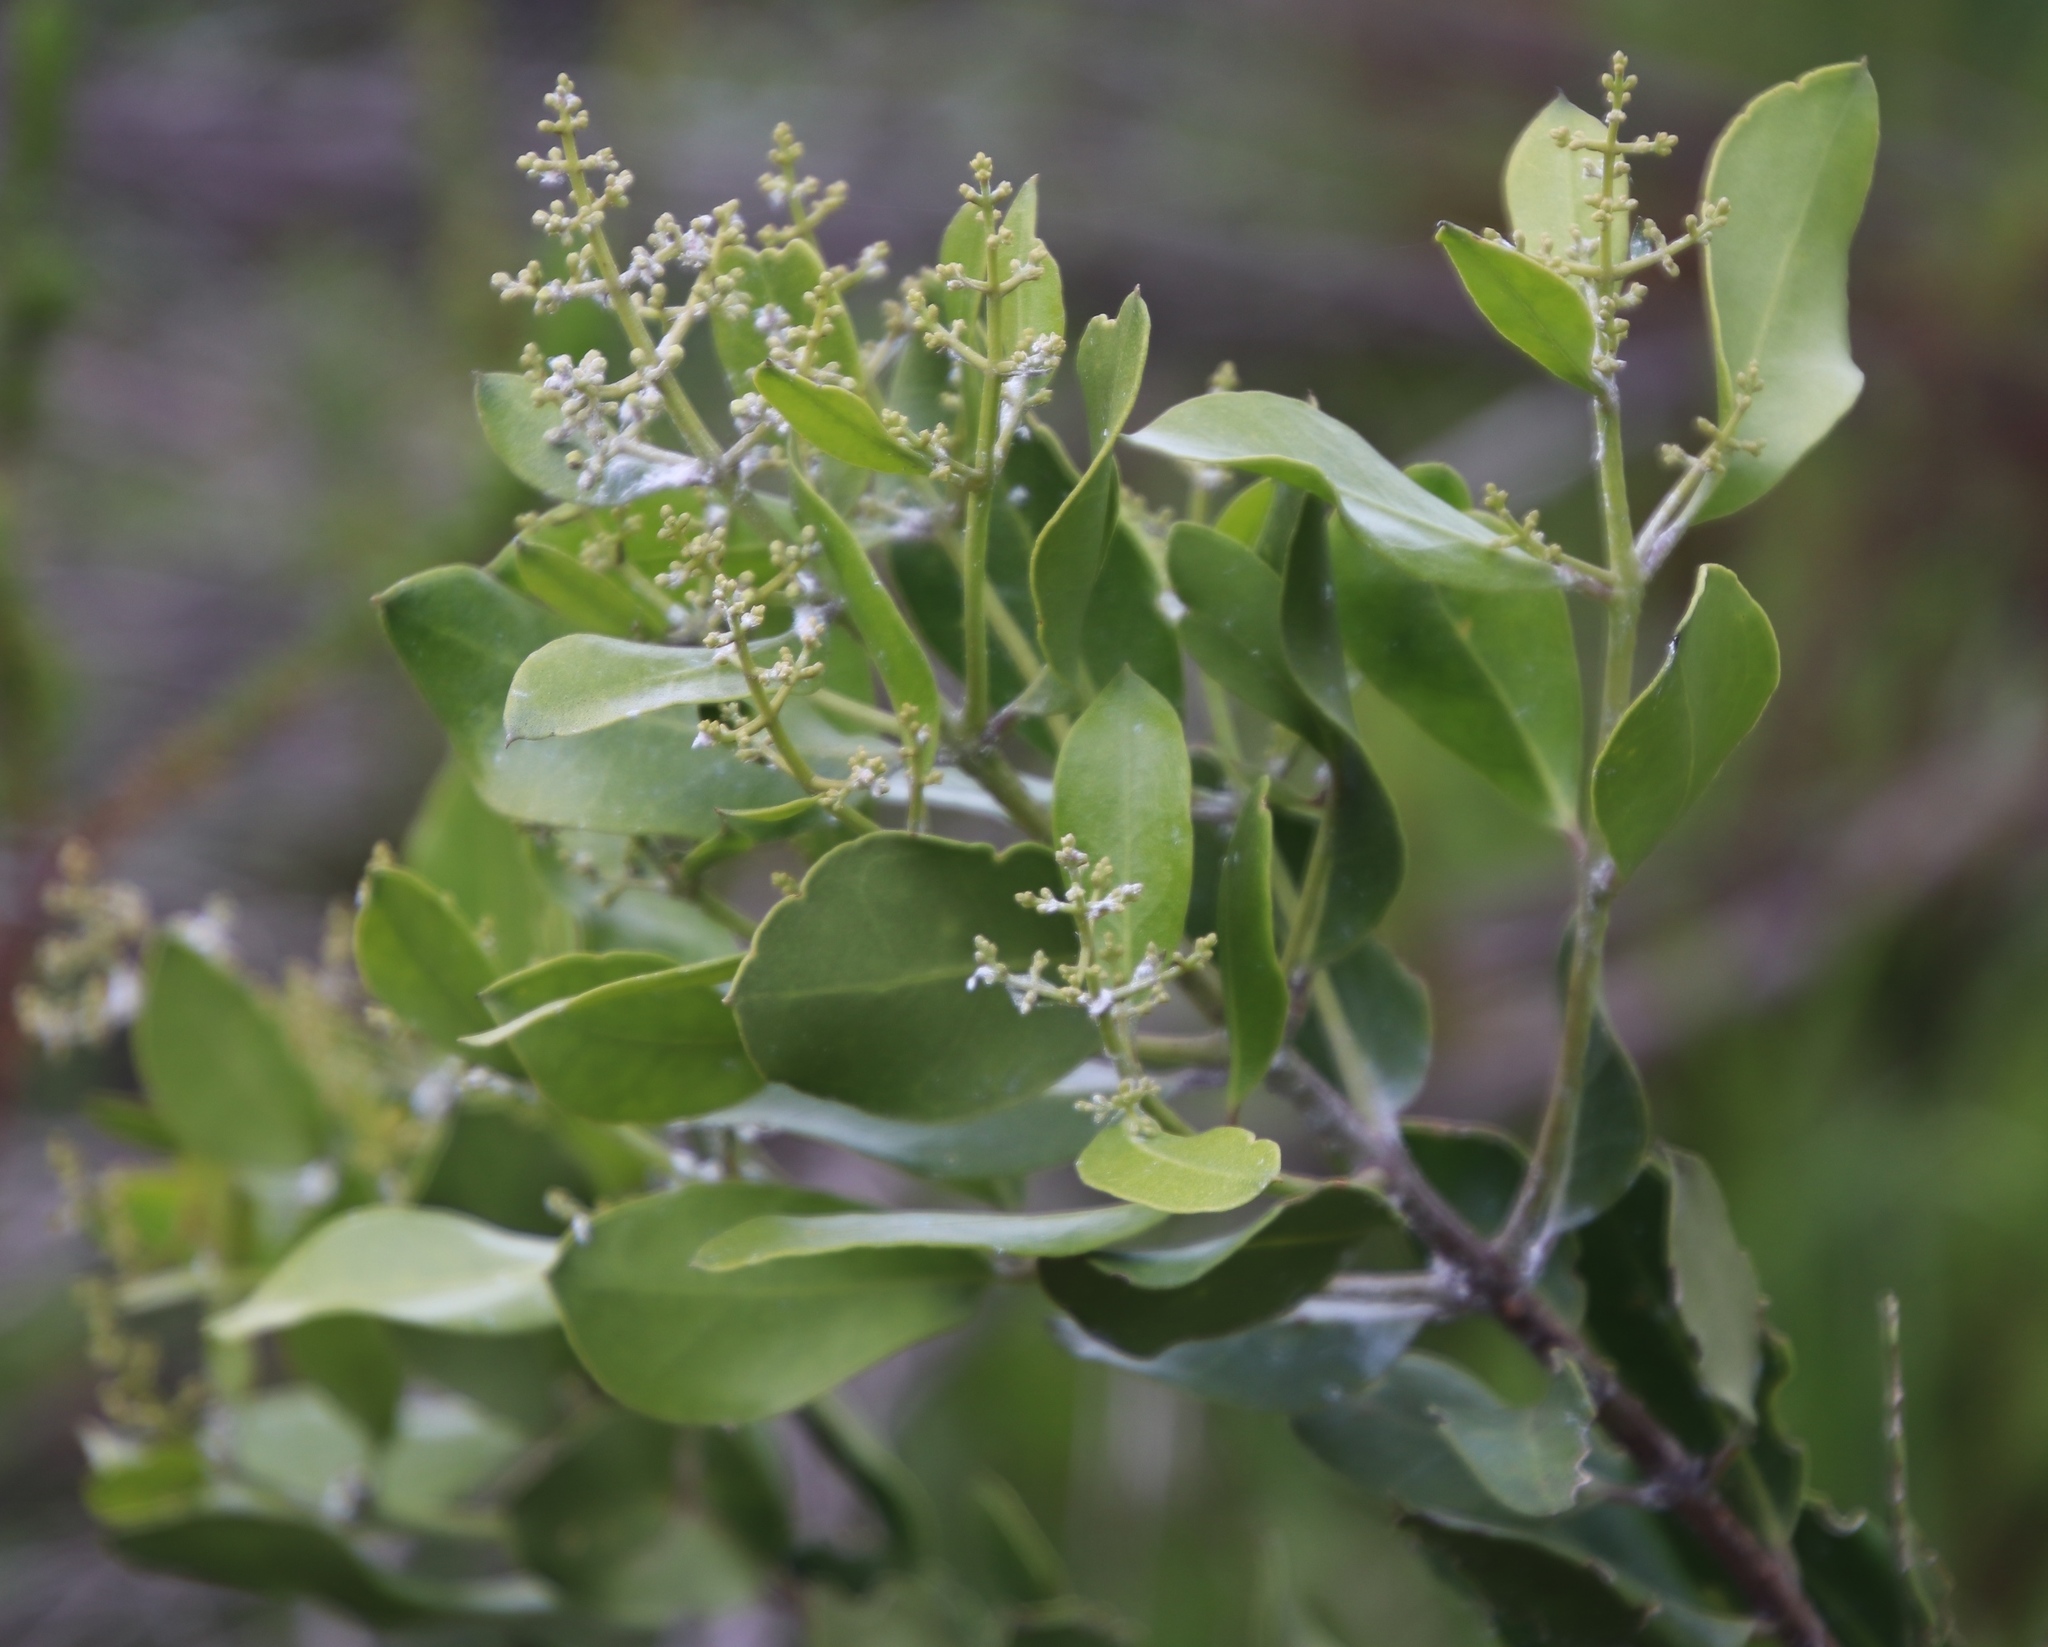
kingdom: Plantae
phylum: Tracheophyta
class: Magnoliopsida
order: Lamiales
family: Oleaceae
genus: Olea
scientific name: Olea capensis
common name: Black ironwood
